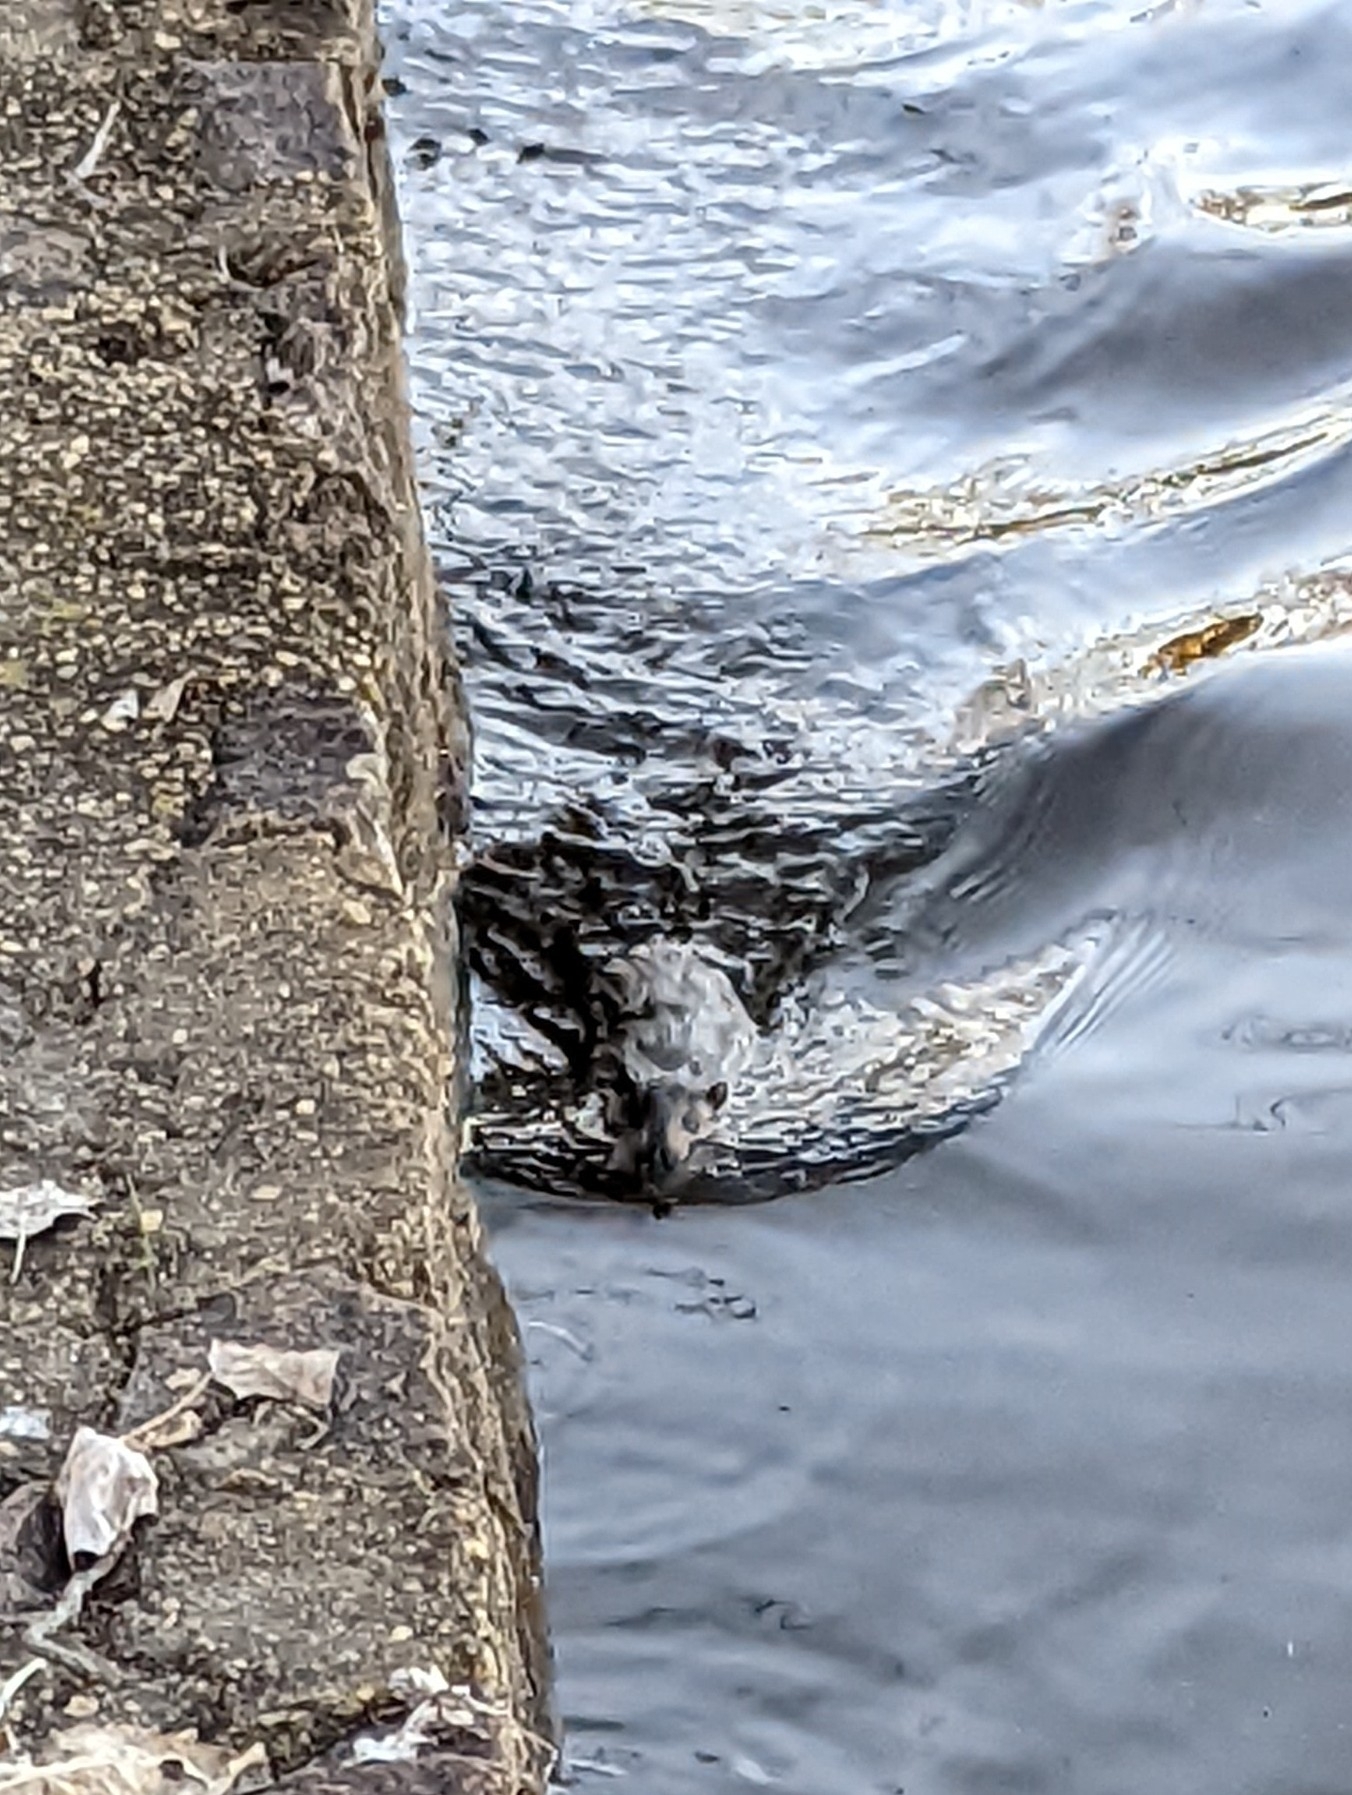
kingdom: Animalia
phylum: Chordata
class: Mammalia
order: Rodentia
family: Muridae
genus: Hydromys
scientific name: Hydromys chrysogaster
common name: Common water rat
